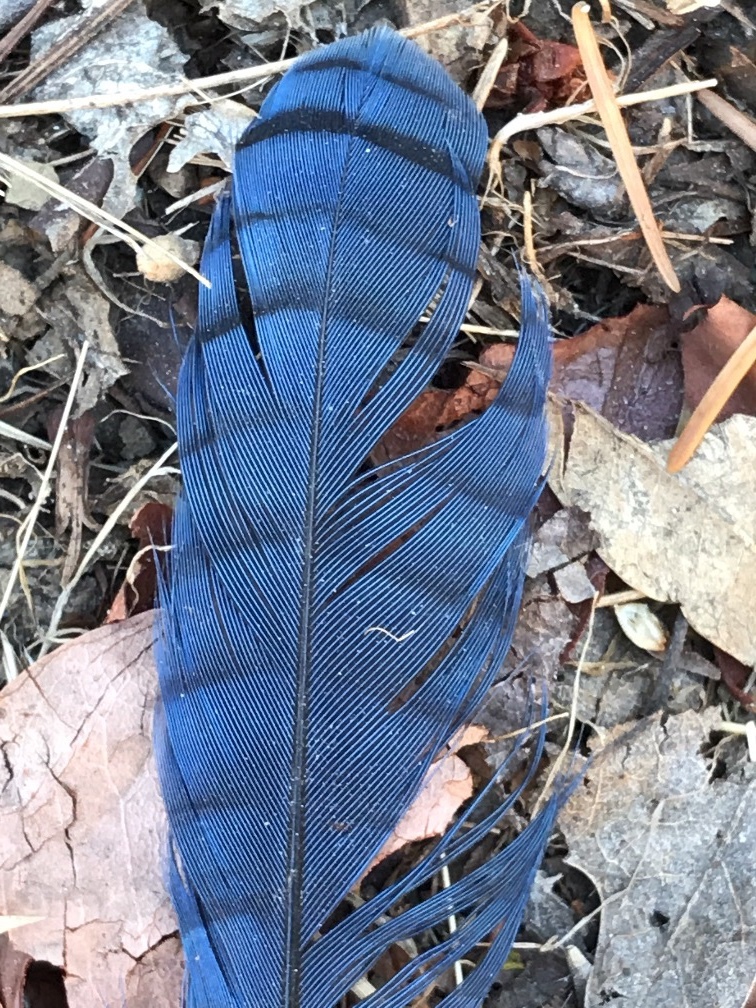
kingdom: Animalia
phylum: Chordata
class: Aves
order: Passeriformes
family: Corvidae
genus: Cyanocitta
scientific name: Cyanocitta stelleri
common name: Steller's jay
